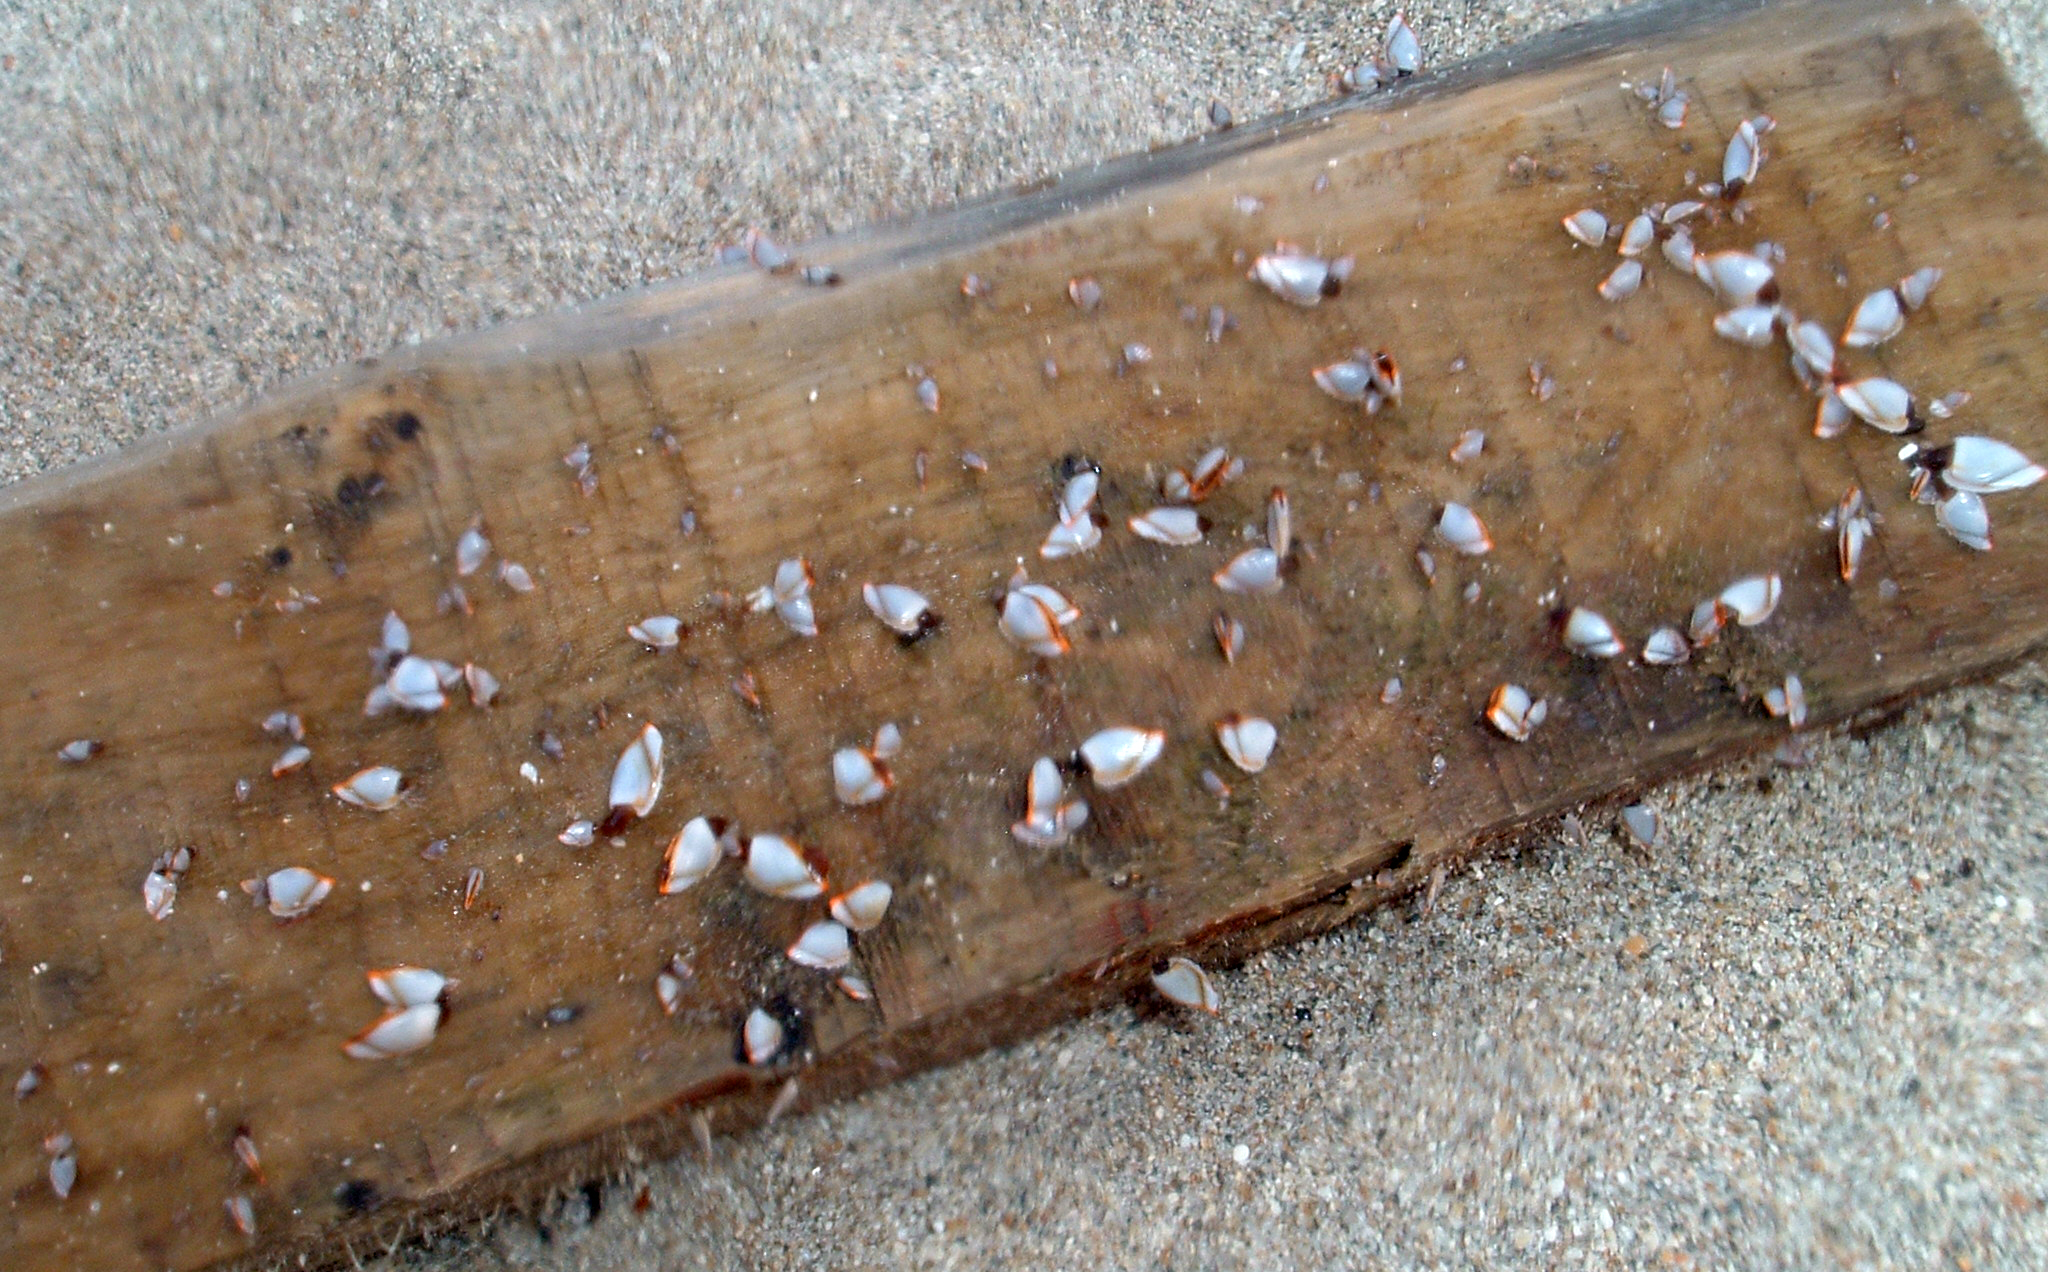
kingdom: Animalia
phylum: Arthropoda
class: Maxillopoda
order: Pedunculata
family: Lepadidae
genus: Lepas
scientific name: Lepas anserifera
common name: Goose barnacle
